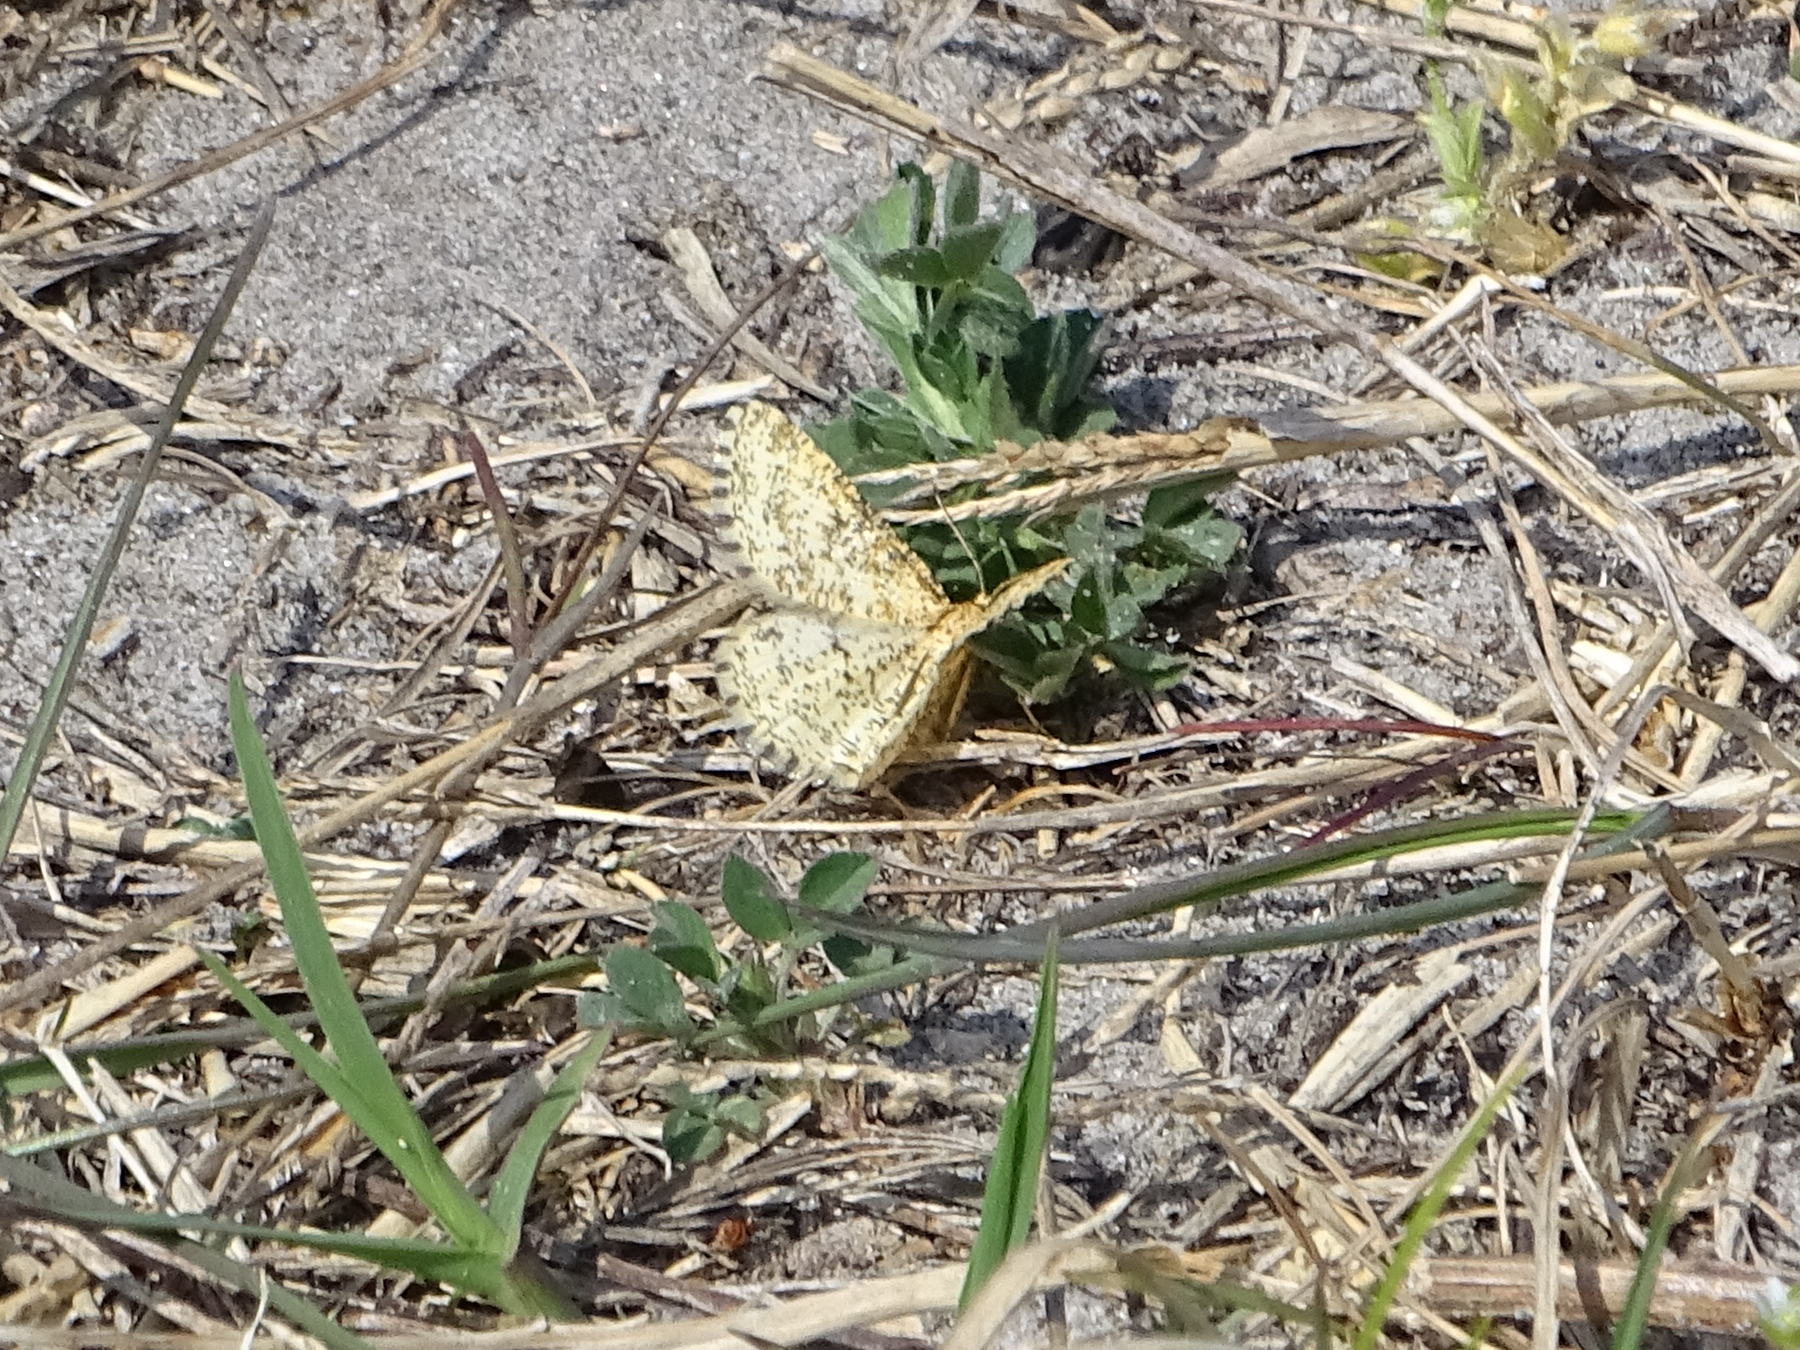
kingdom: Animalia
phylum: Arthropoda
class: Insecta
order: Lepidoptera
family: Geometridae
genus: Heliomata
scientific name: Heliomata glarearia
